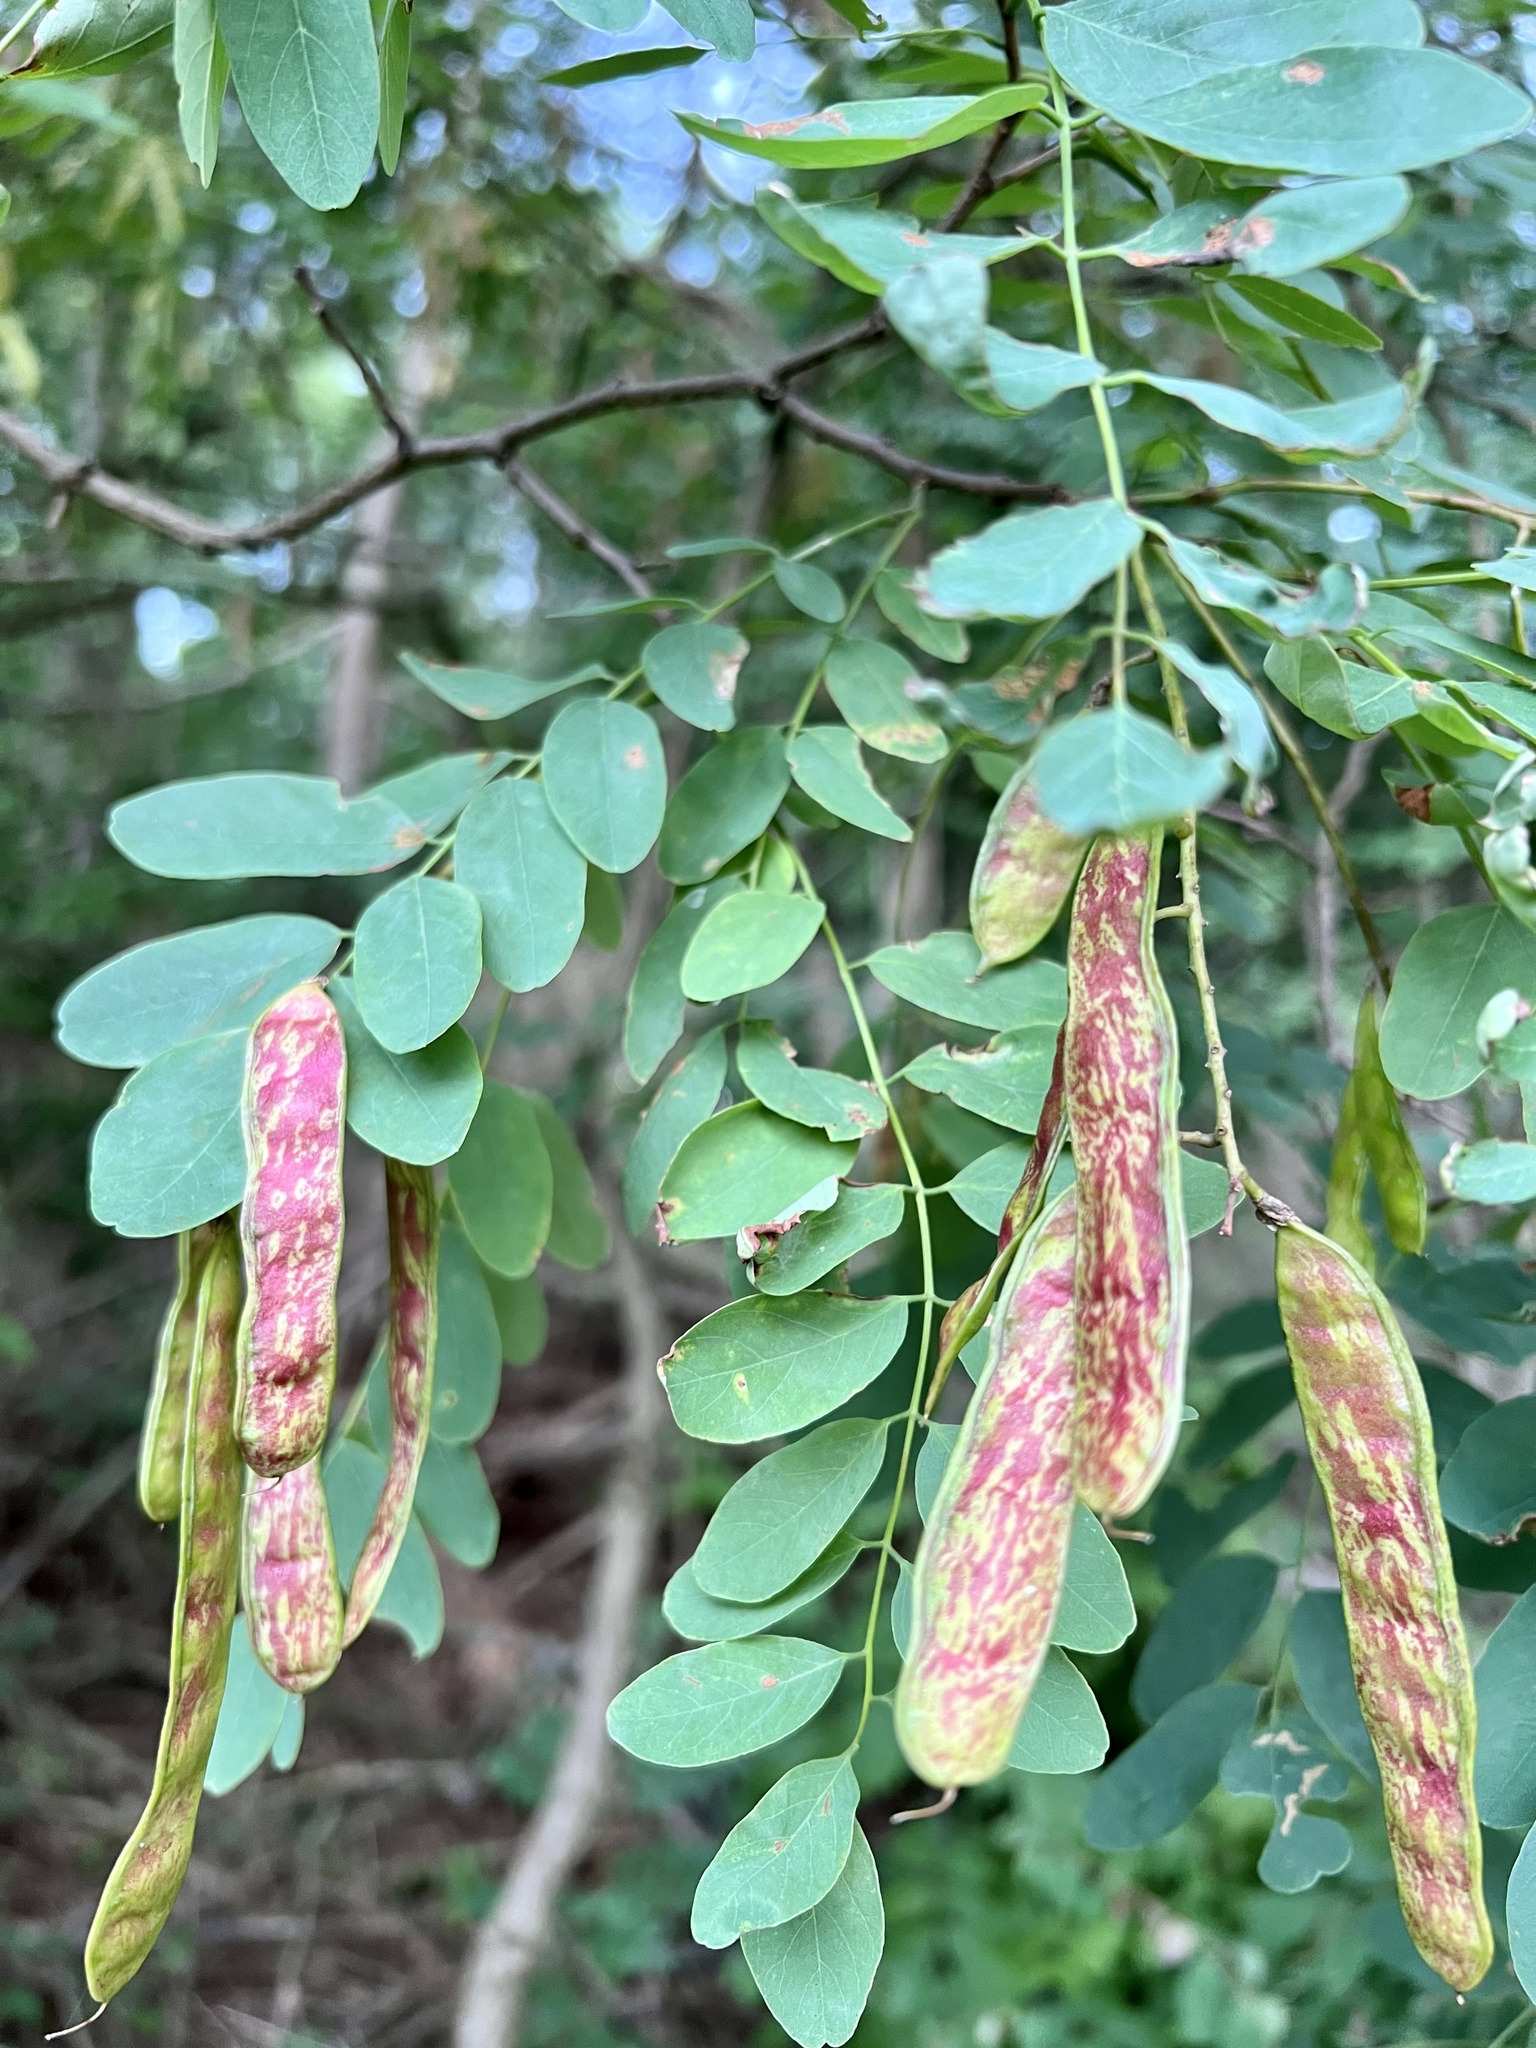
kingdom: Plantae
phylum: Tracheophyta
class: Magnoliopsida
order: Fabales
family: Fabaceae
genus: Robinia
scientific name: Robinia pseudoacacia
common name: Black locust
